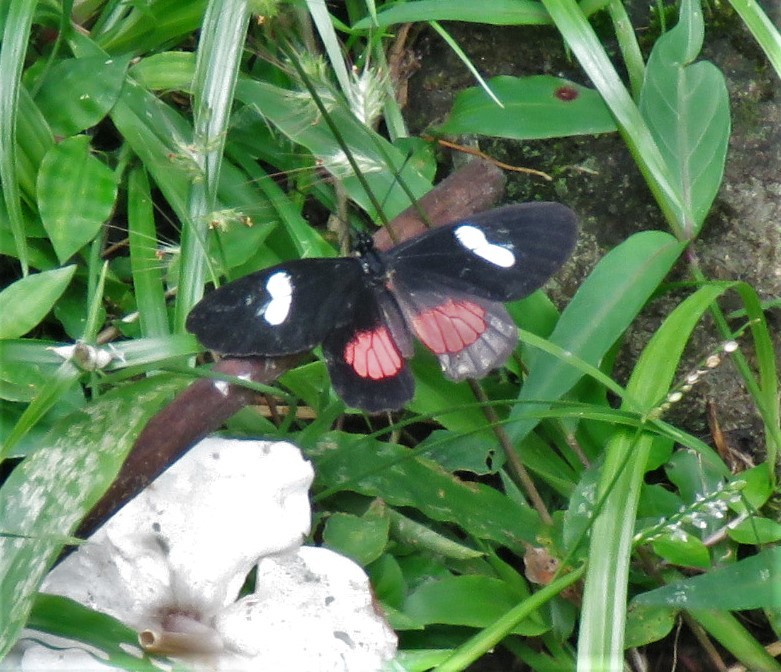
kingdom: Animalia
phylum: Arthropoda
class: Insecta
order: Lepidoptera
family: Pieridae
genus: Archonias
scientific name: Archonias brassolis
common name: Cattleheart white
